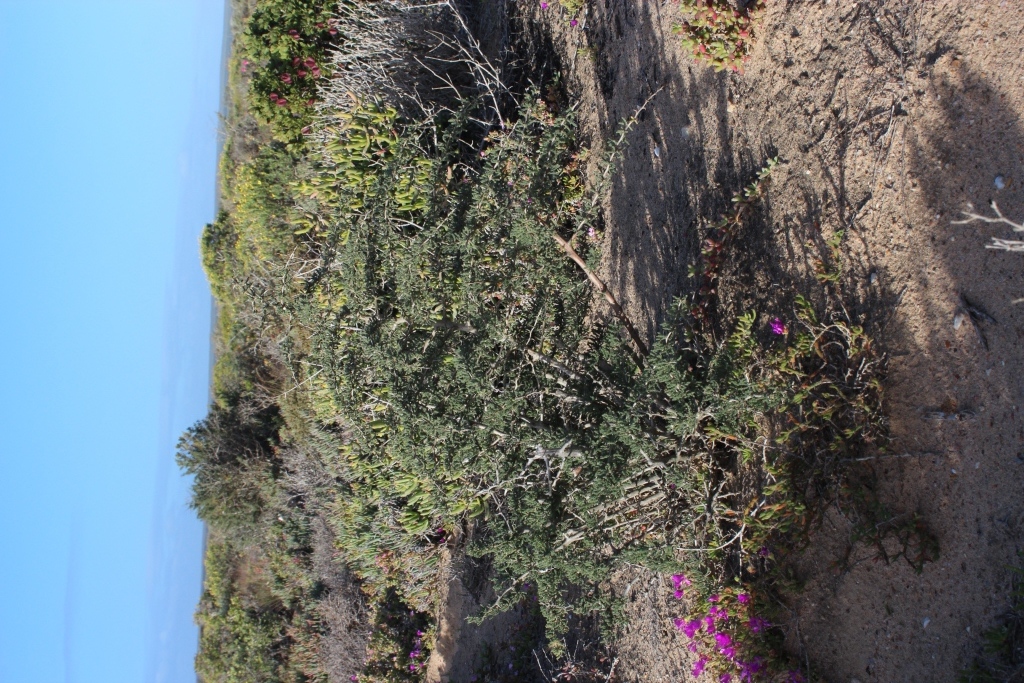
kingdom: Plantae
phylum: Tracheophyta
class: Liliopsida
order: Asparagales
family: Asparagaceae
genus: Asparagus
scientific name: Asparagus capensis
